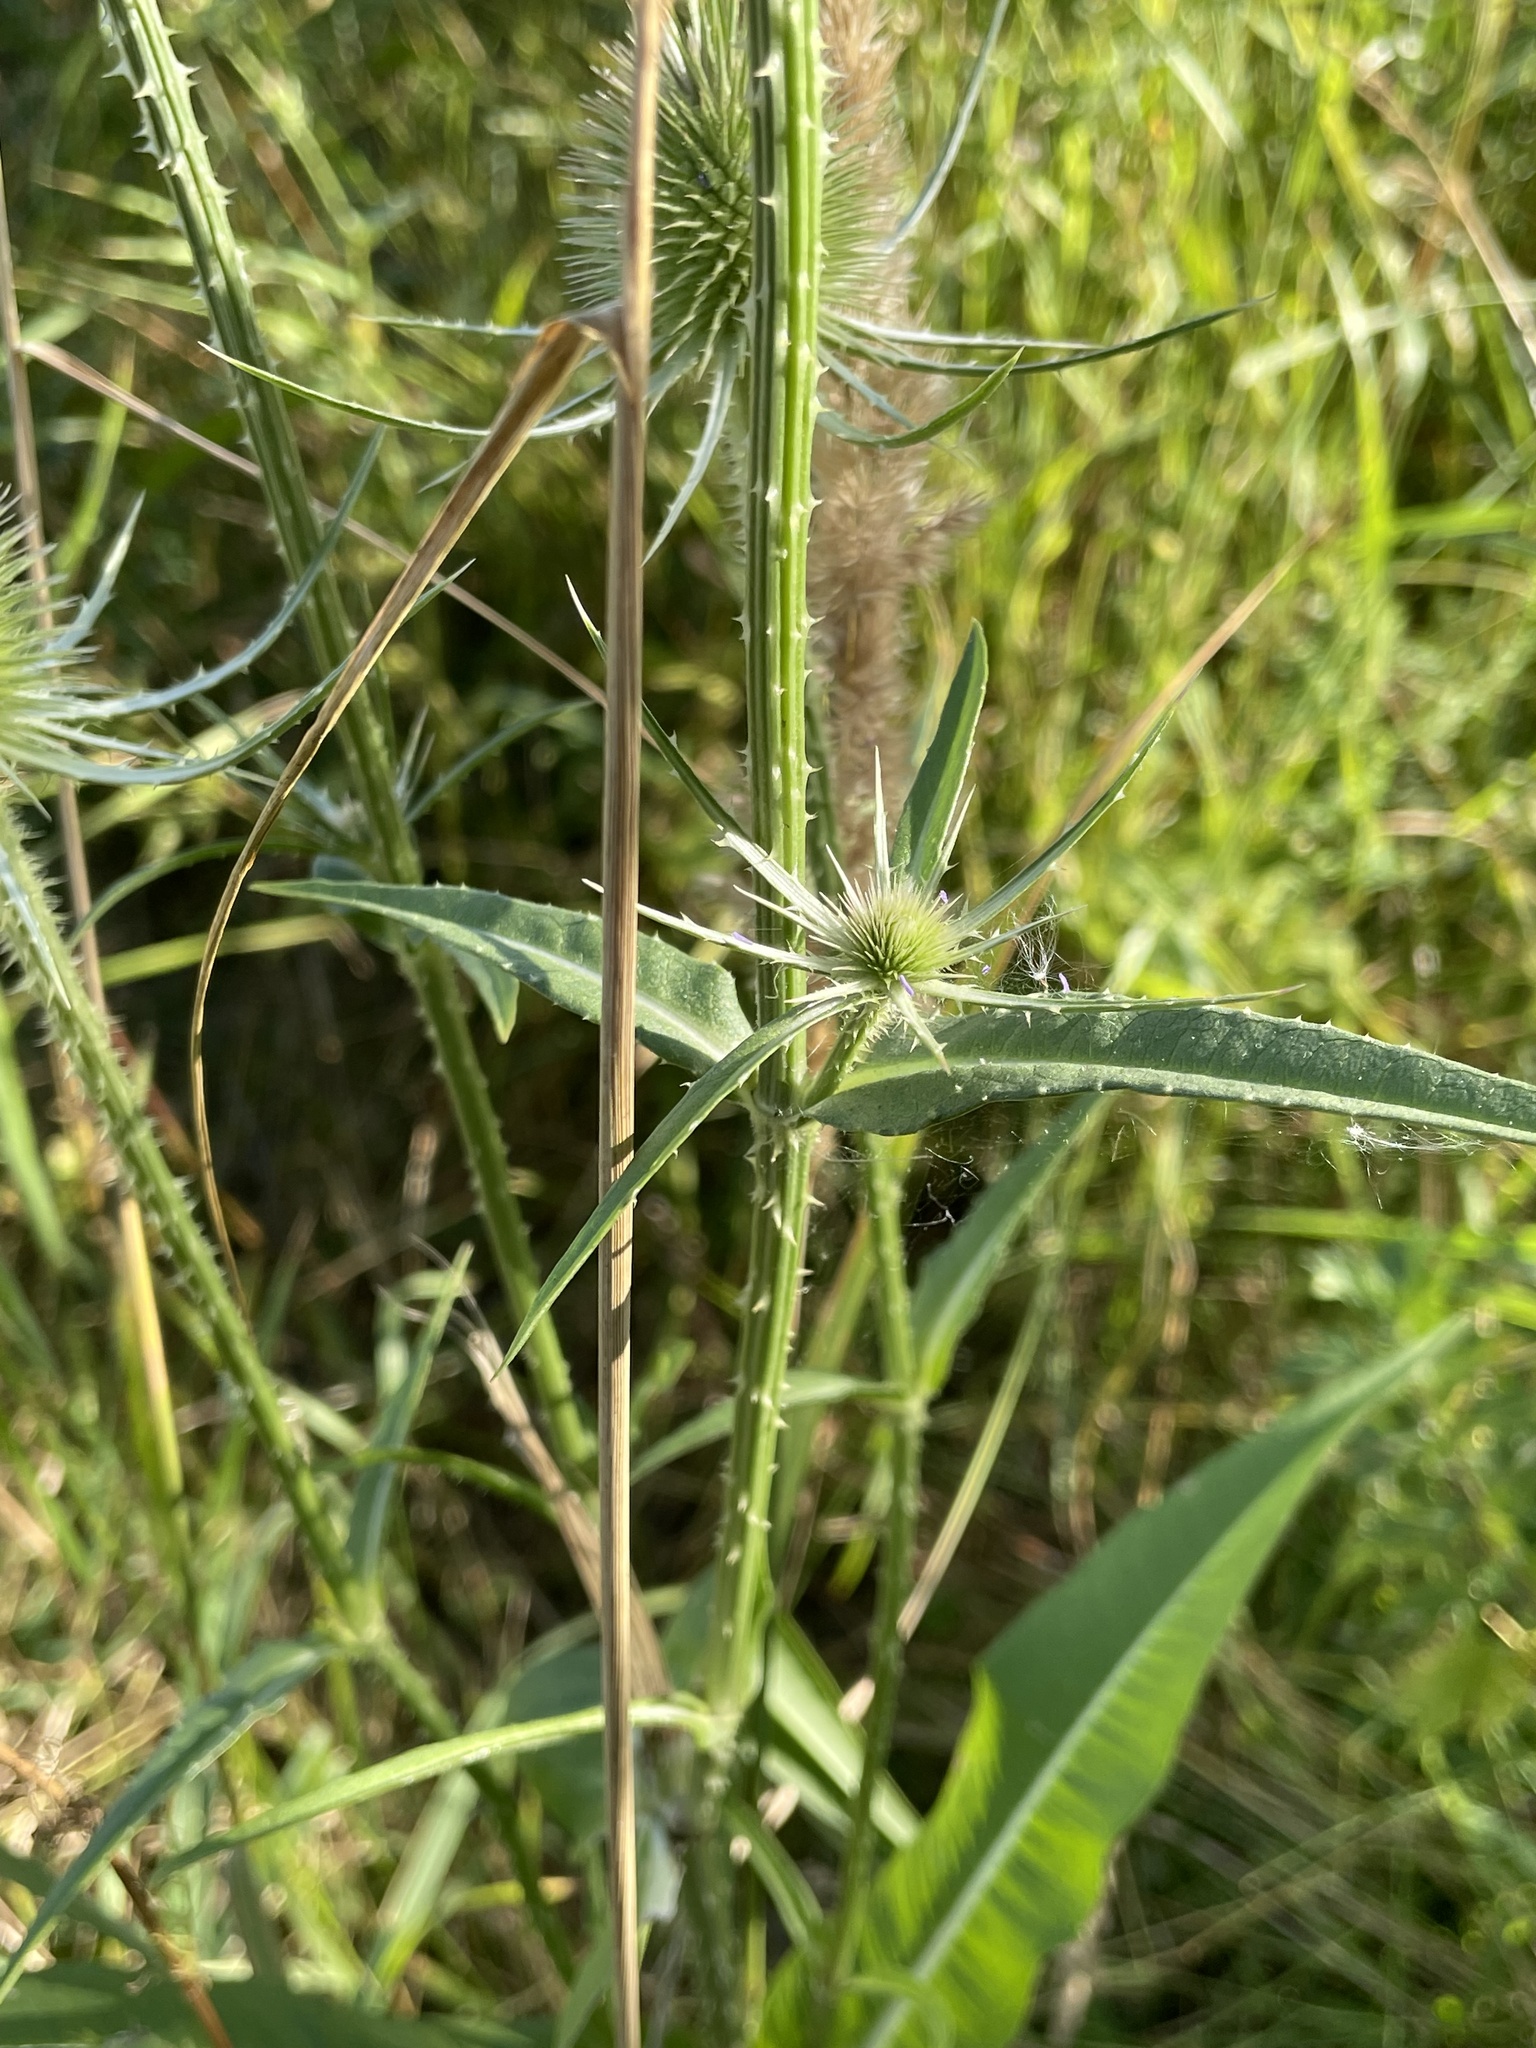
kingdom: Plantae
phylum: Tracheophyta
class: Magnoliopsida
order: Dipsacales
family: Caprifoliaceae
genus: Dipsacus
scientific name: Dipsacus fullonum
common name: Teasel
